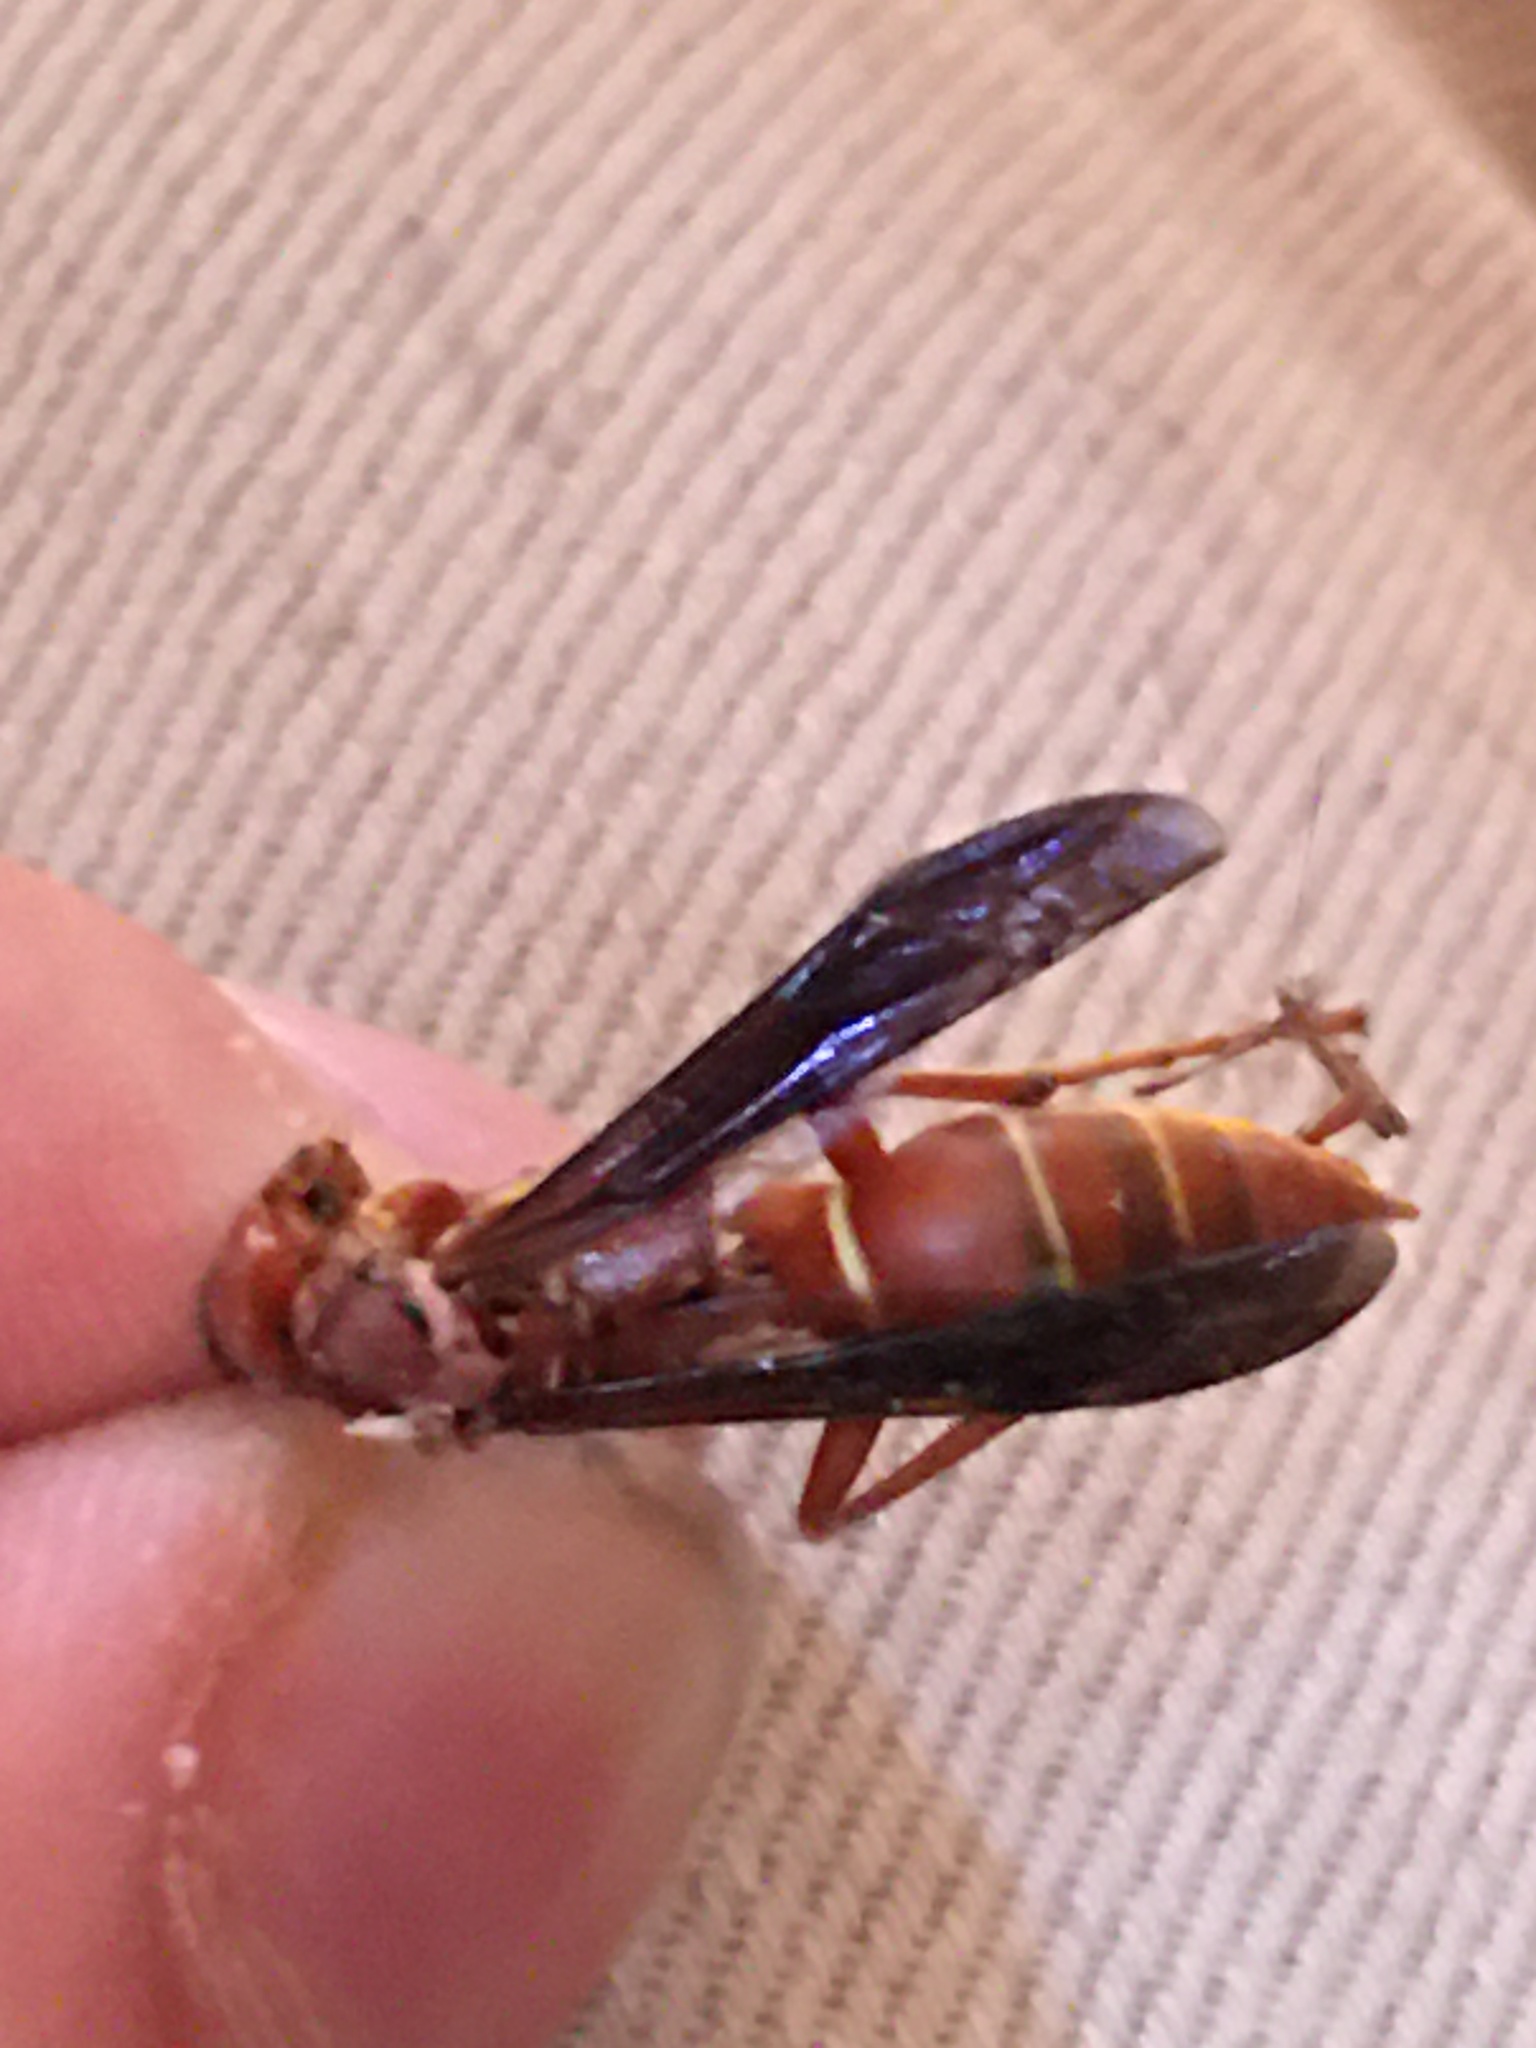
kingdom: Animalia
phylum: Arthropoda
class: Insecta
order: Hymenoptera
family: Eumenidae
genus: Polistes
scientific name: Polistes
